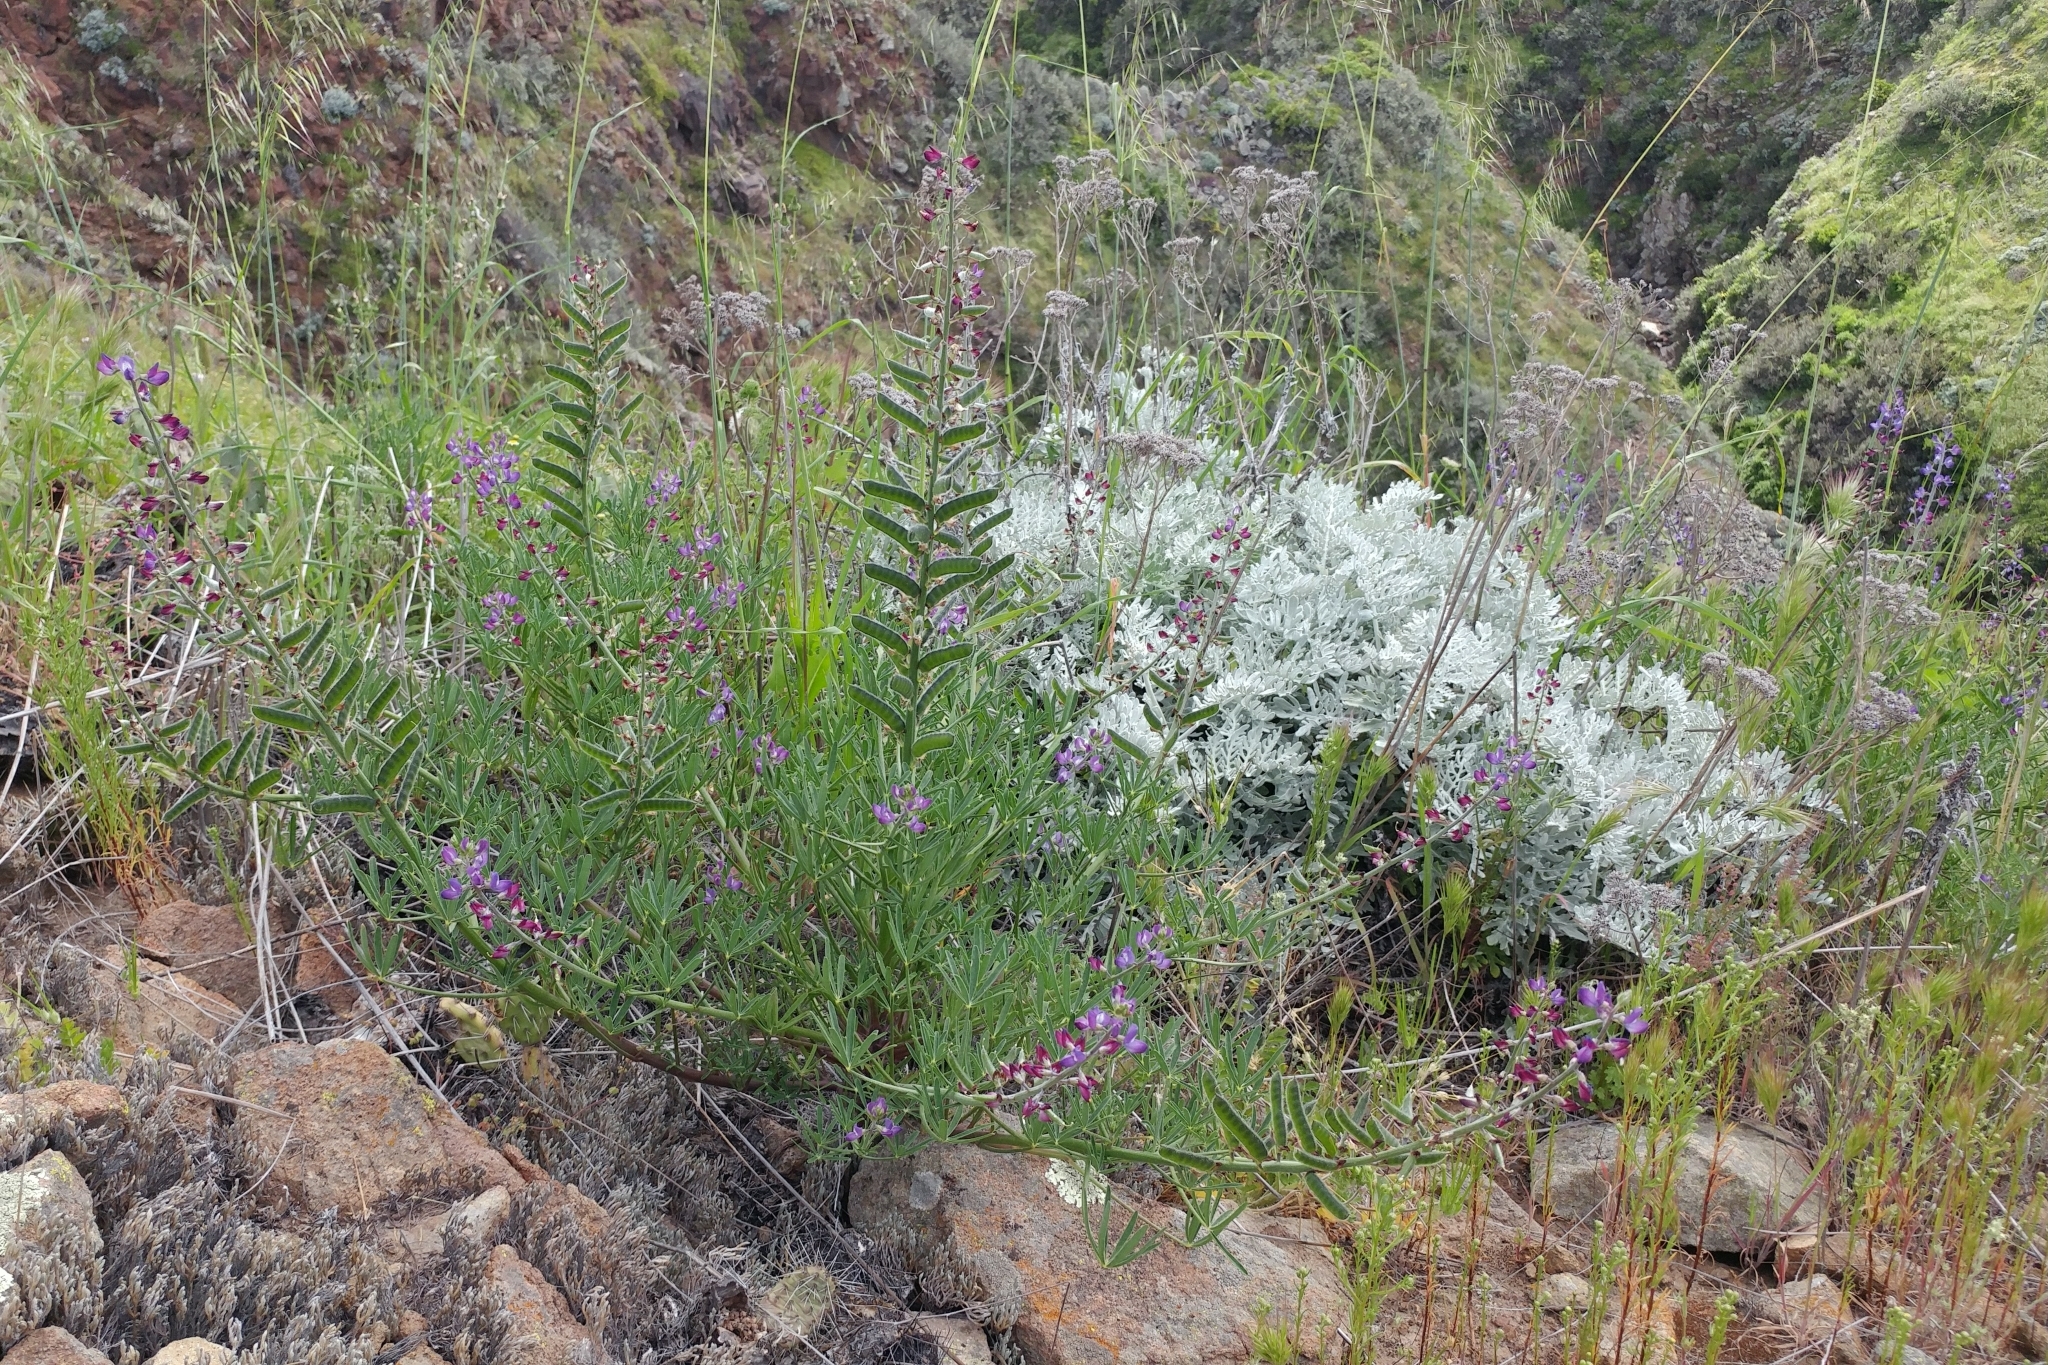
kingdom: Plantae
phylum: Tracheophyta
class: Magnoliopsida
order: Fabales
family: Fabaceae
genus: Lupinus
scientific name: Lupinus truncatus
